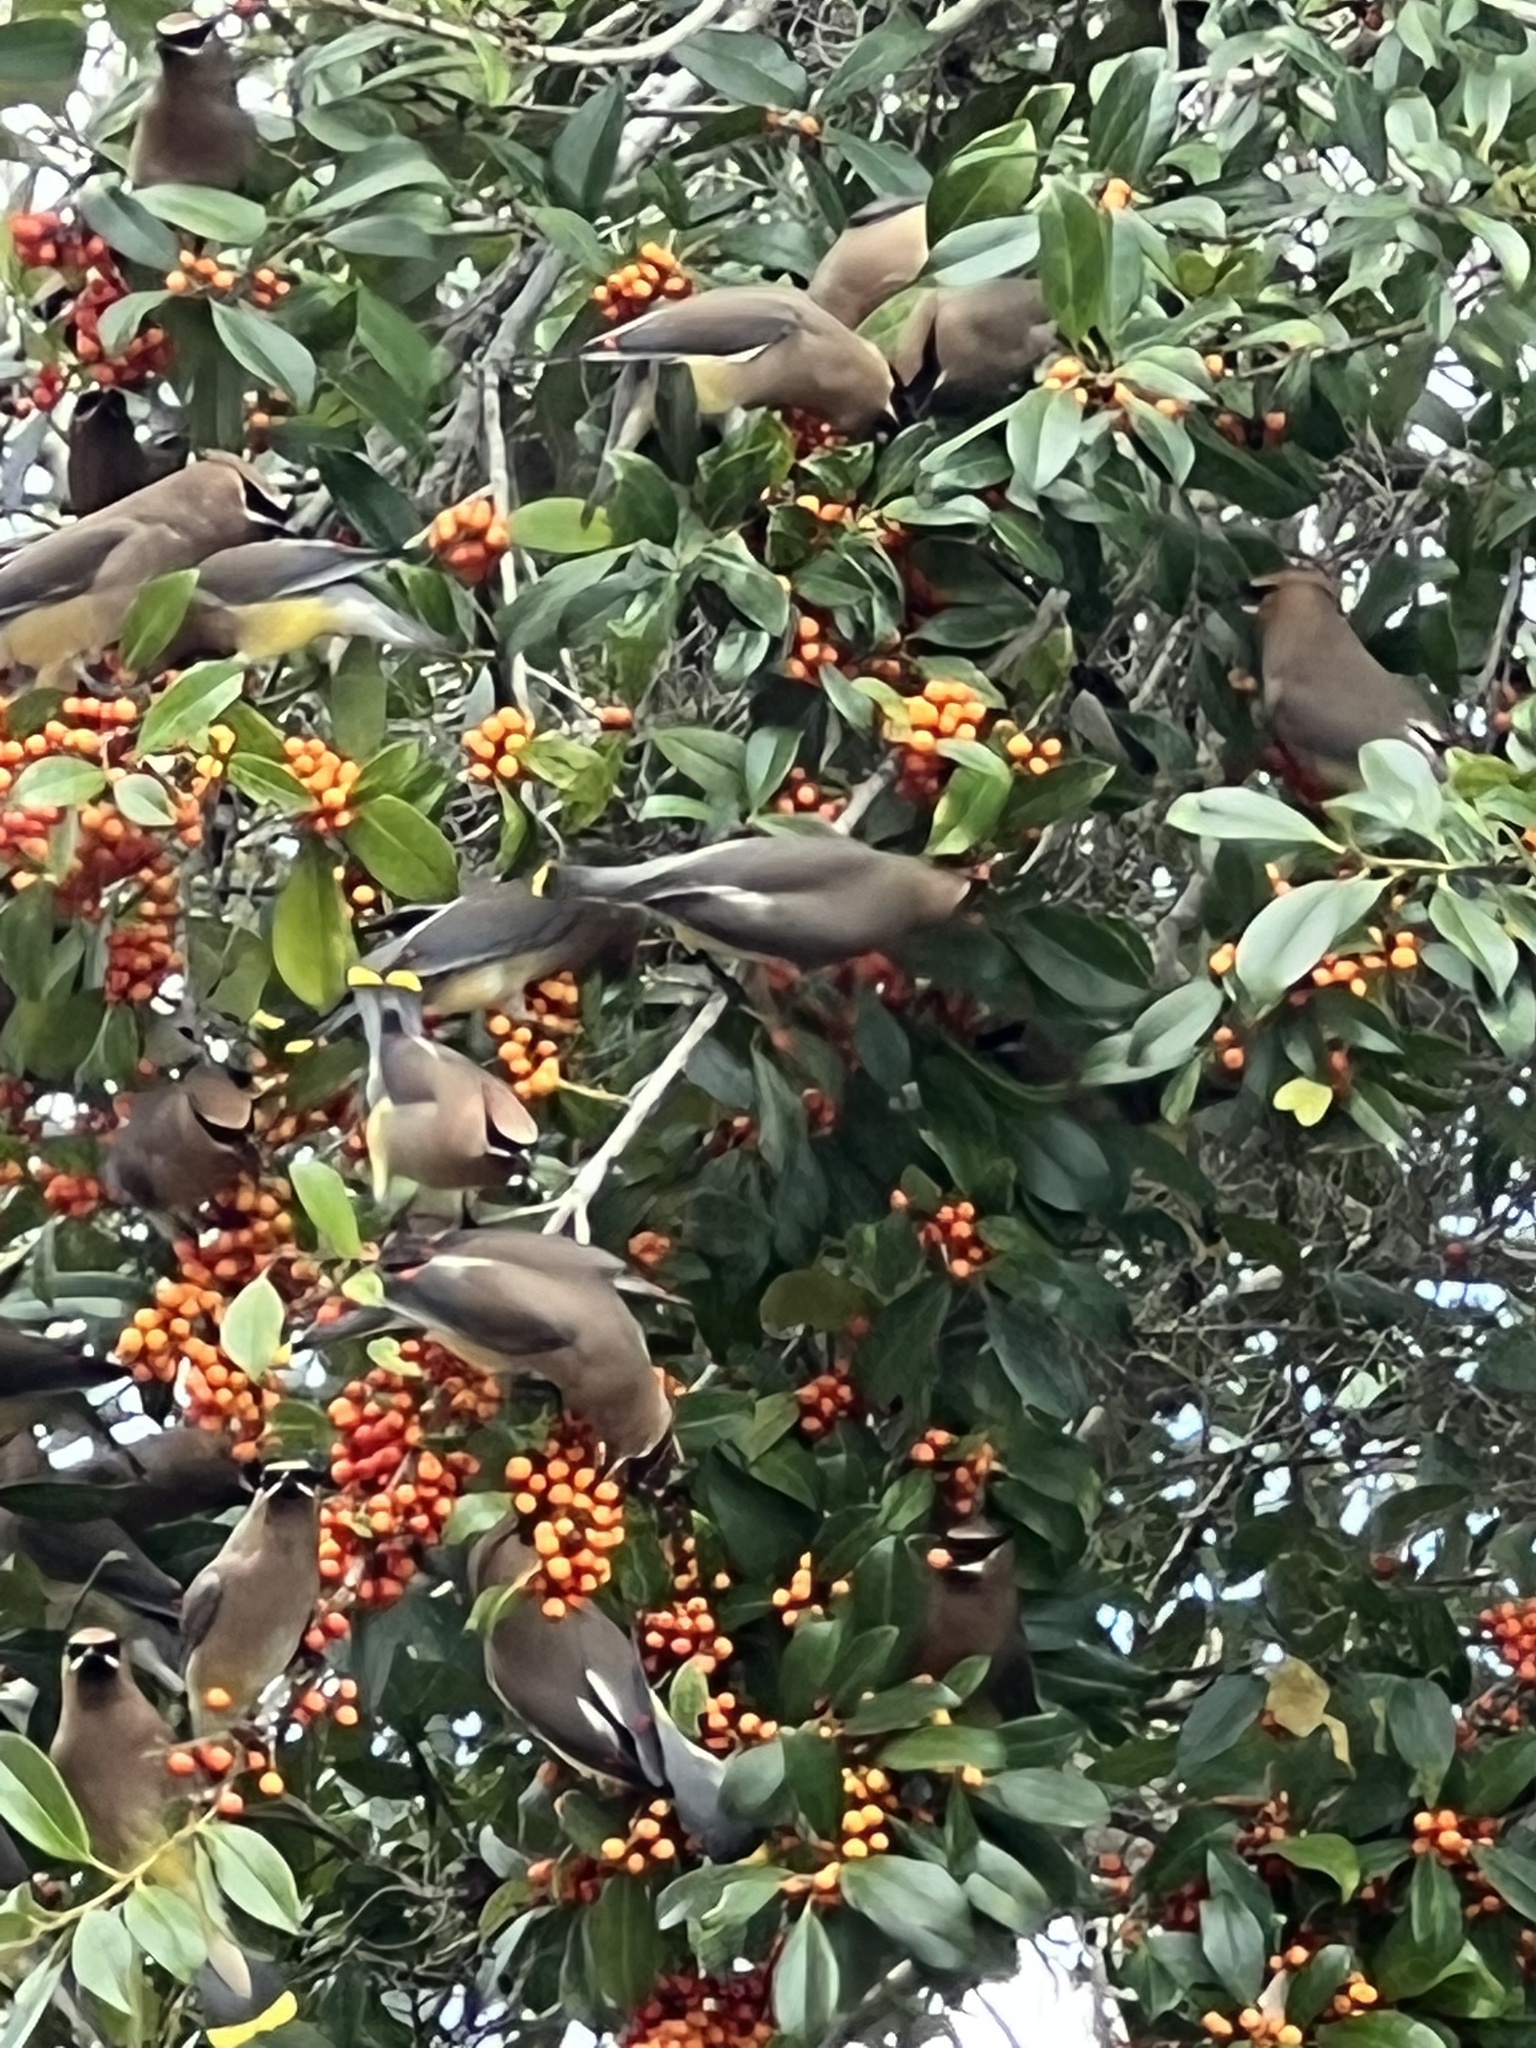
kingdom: Animalia
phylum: Chordata
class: Aves
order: Passeriformes
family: Bombycillidae
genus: Bombycilla
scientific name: Bombycilla cedrorum
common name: Cedar waxwing
